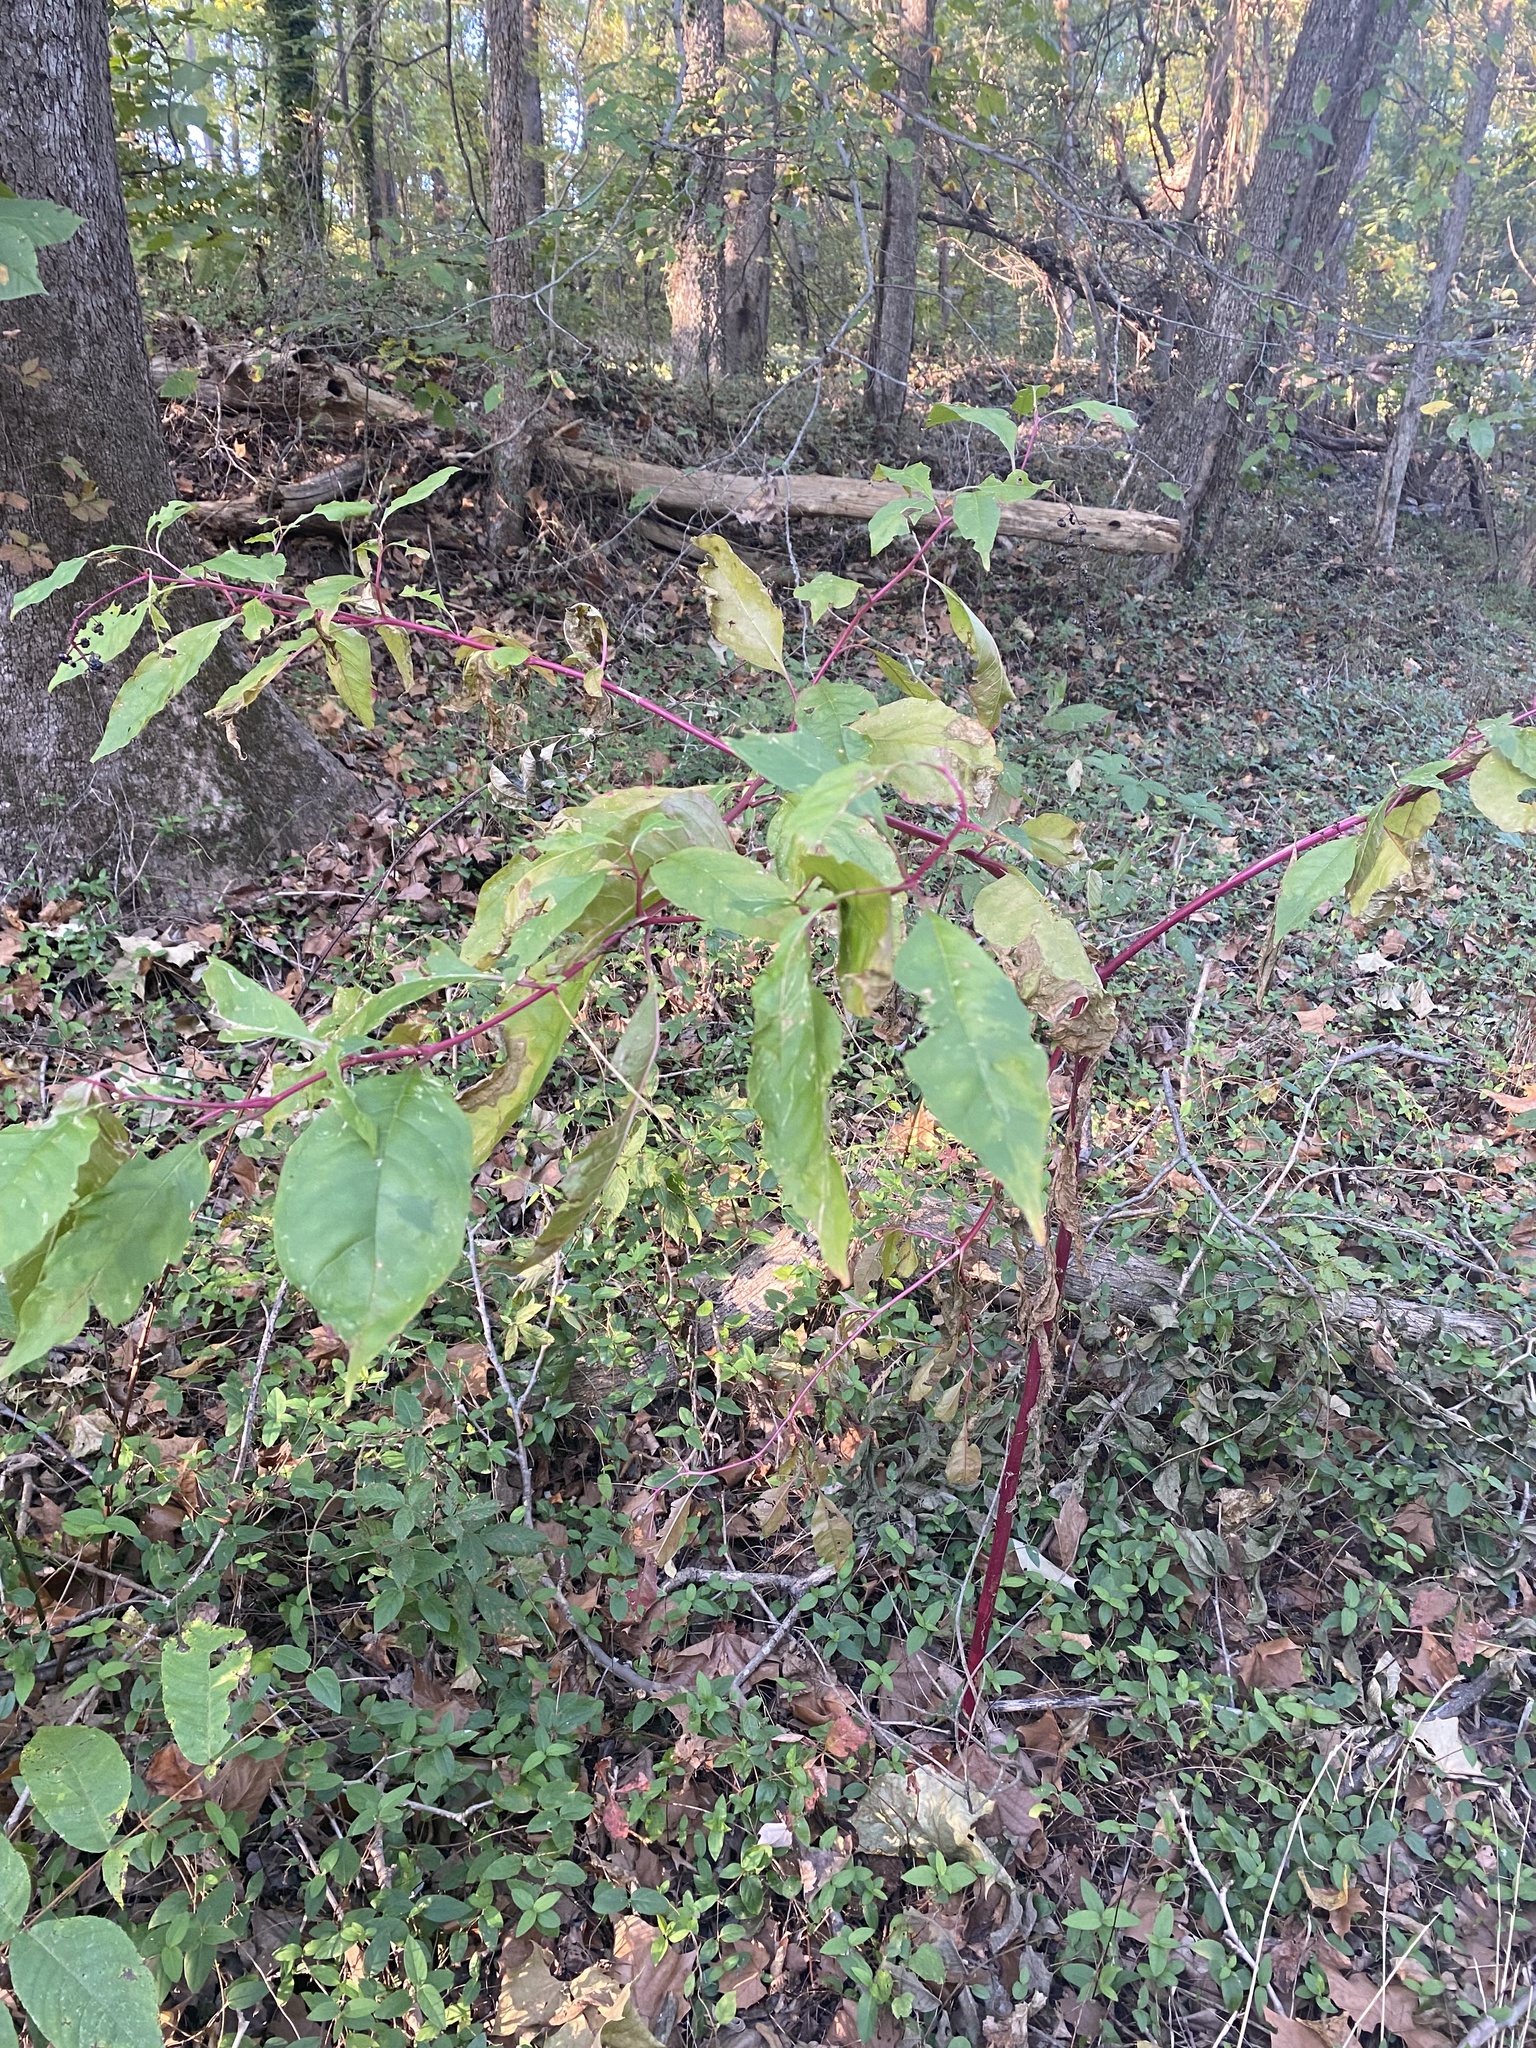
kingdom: Plantae
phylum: Tracheophyta
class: Magnoliopsida
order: Caryophyllales
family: Phytolaccaceae
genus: Phytolacca
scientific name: Phytolacca americana
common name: American pokeweed
